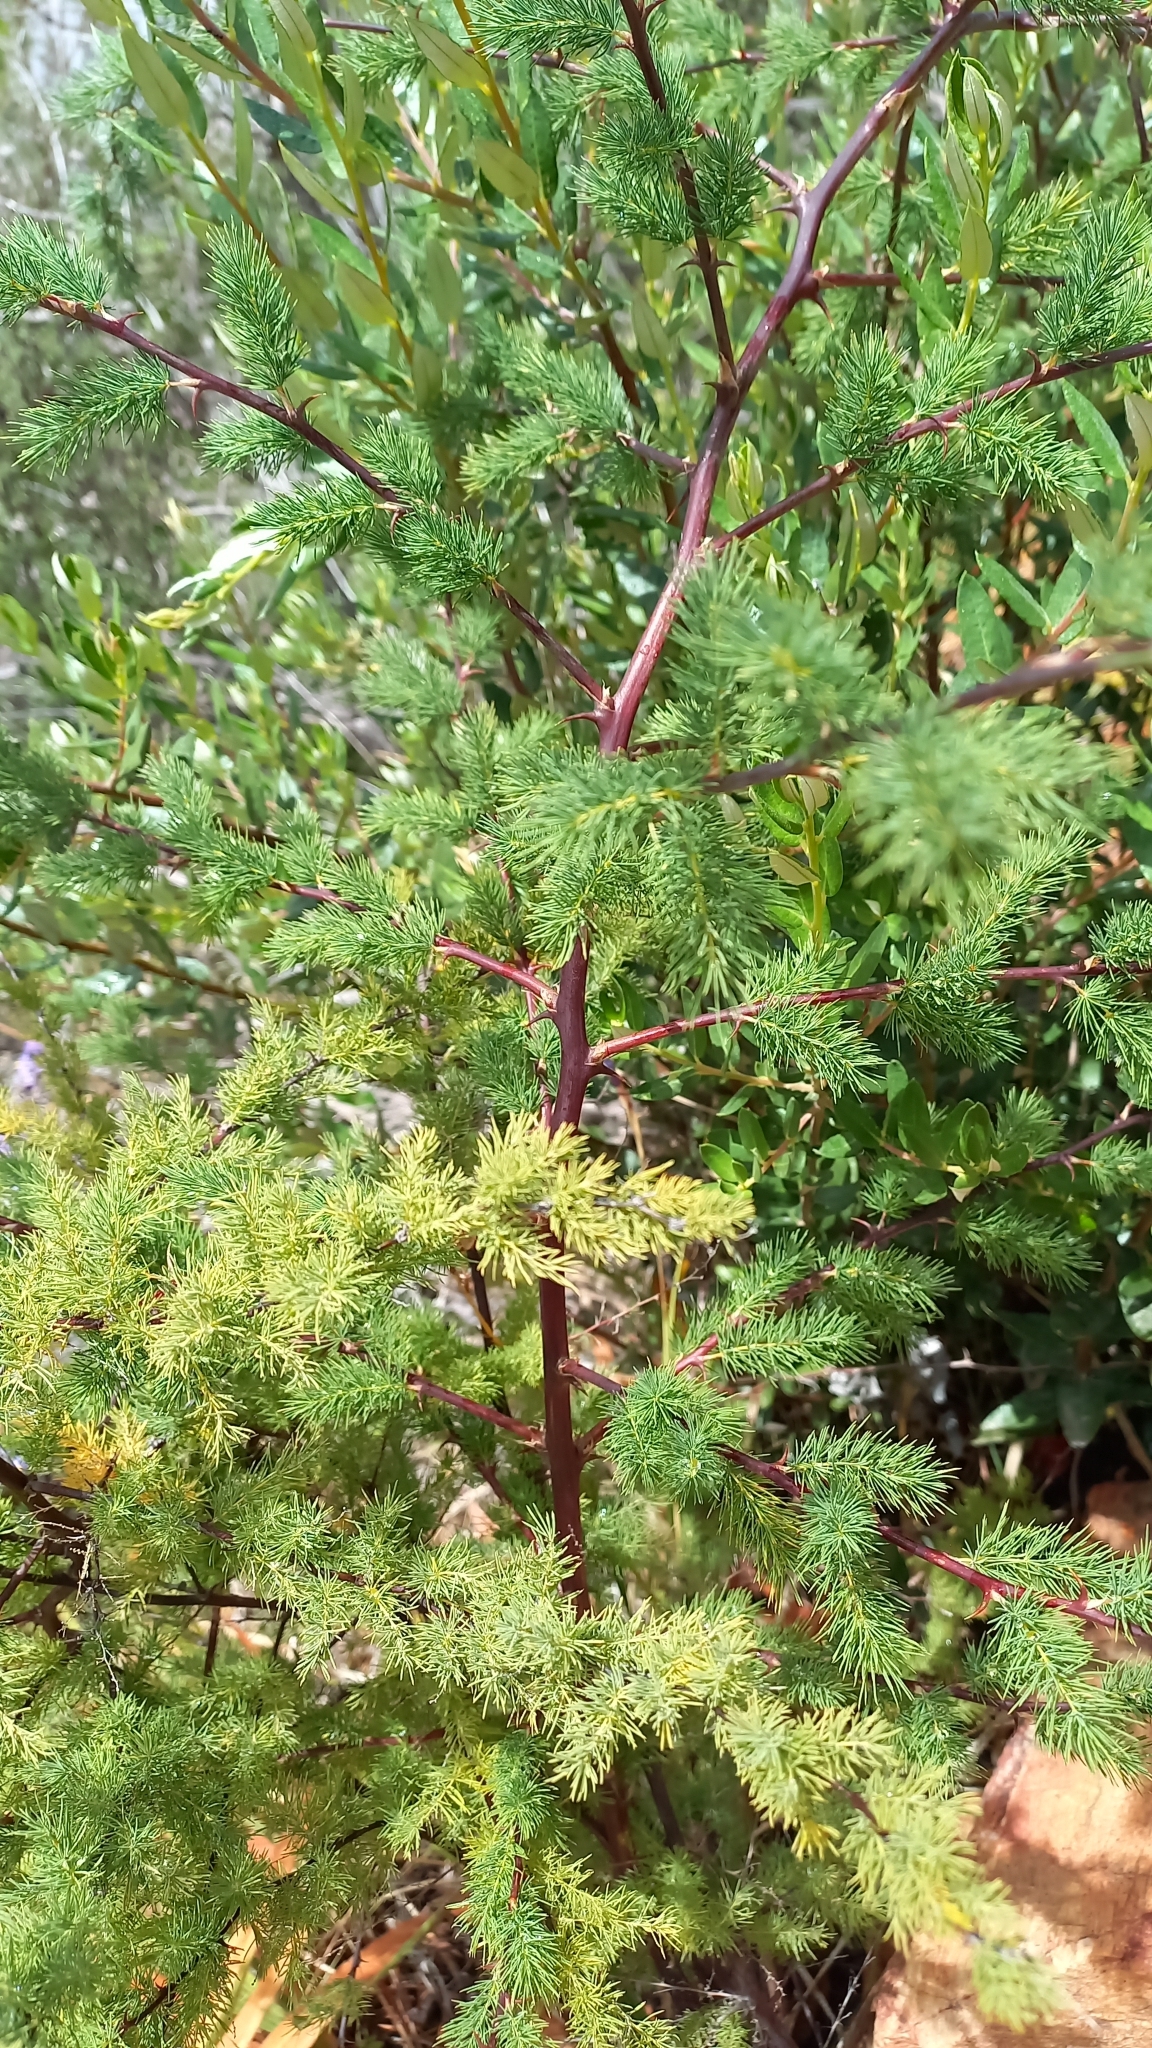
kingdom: Plantae
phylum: Tracheophyta
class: Liliopsida
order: Asparagales
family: Asparagaceae
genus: Asparagus
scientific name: Asparagus rubicundus
